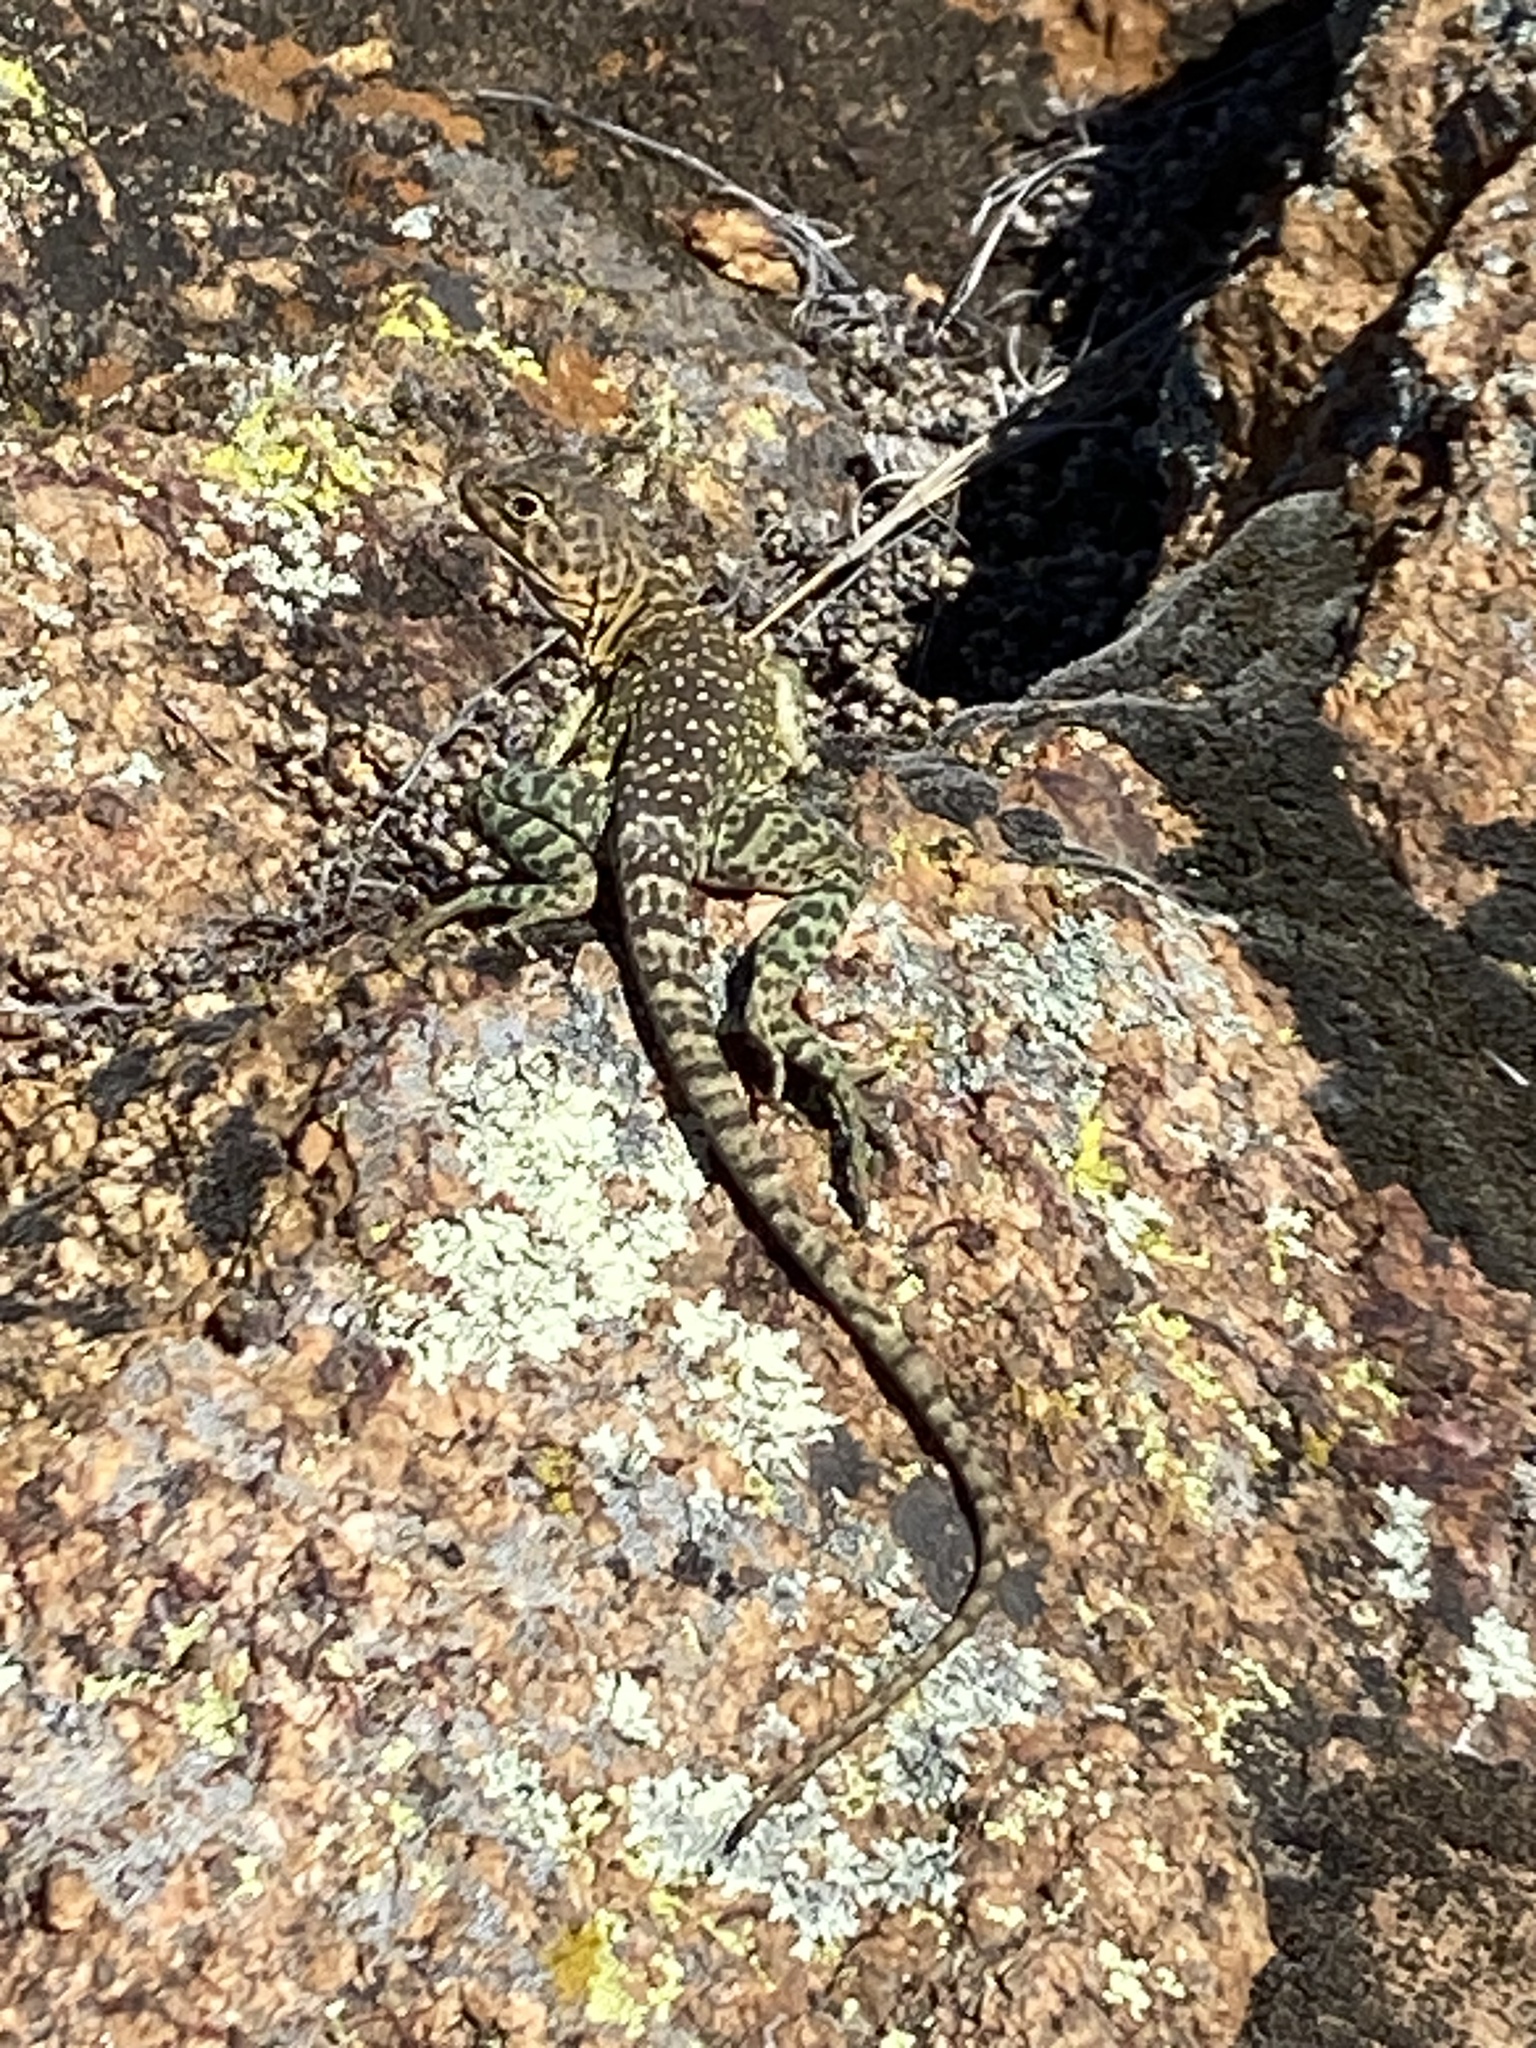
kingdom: Animalia
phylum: Chordata
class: Squamata
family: Crotaphytidae
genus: Crotaphytus
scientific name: Crotaphytus collaris
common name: Collared lizard
